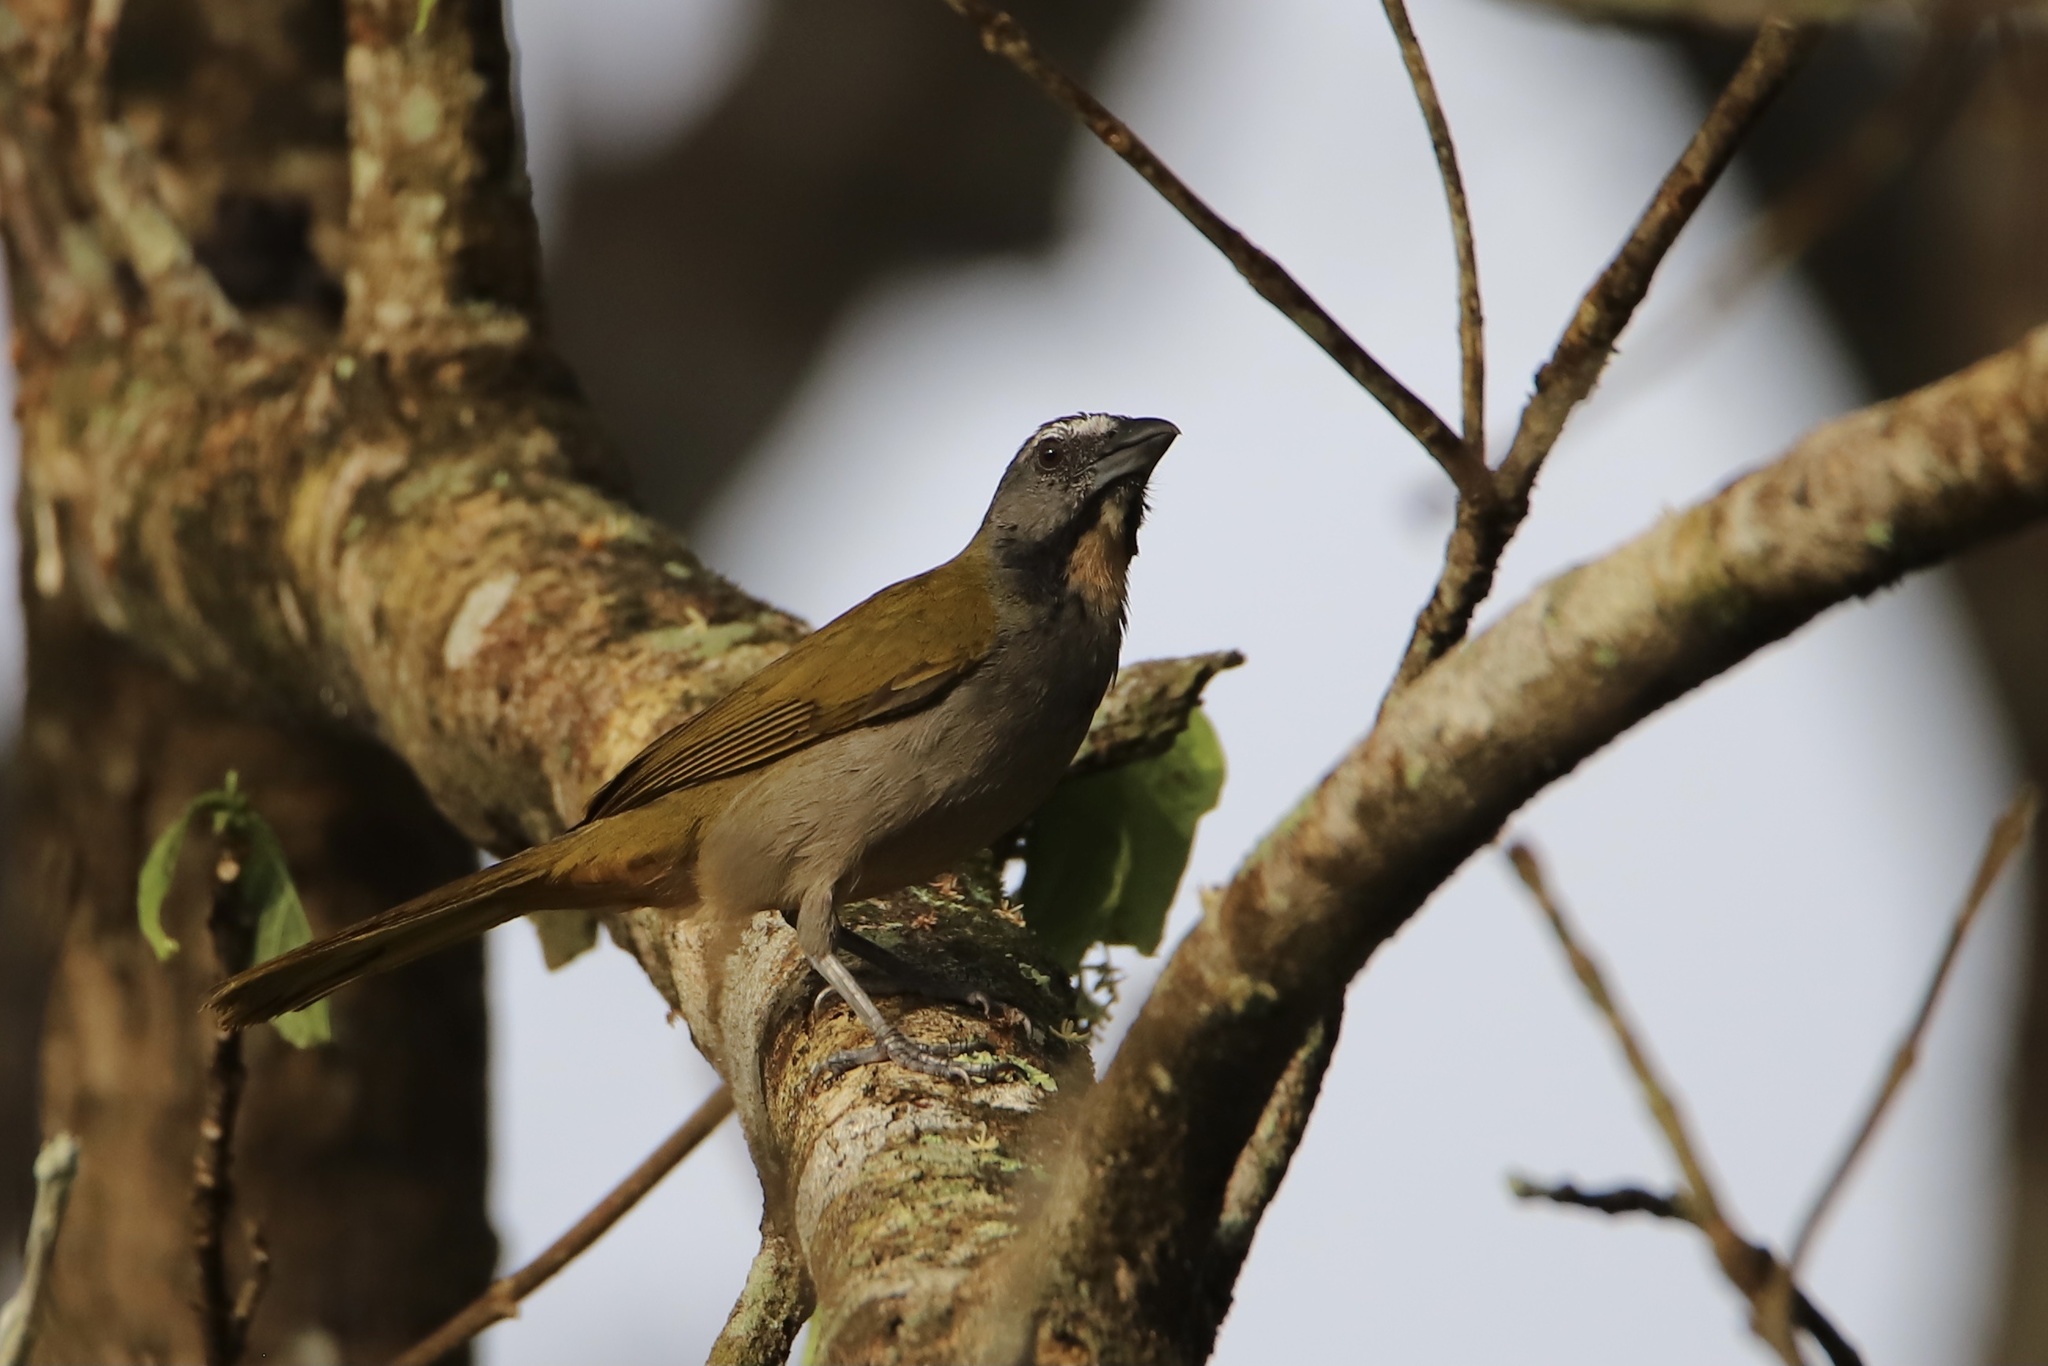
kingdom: Animalia
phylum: Chordata
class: Aves
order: Passeriformes
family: Thraupidae
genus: Saltator
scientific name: Saltator maximus
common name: Buff-throated saltator
